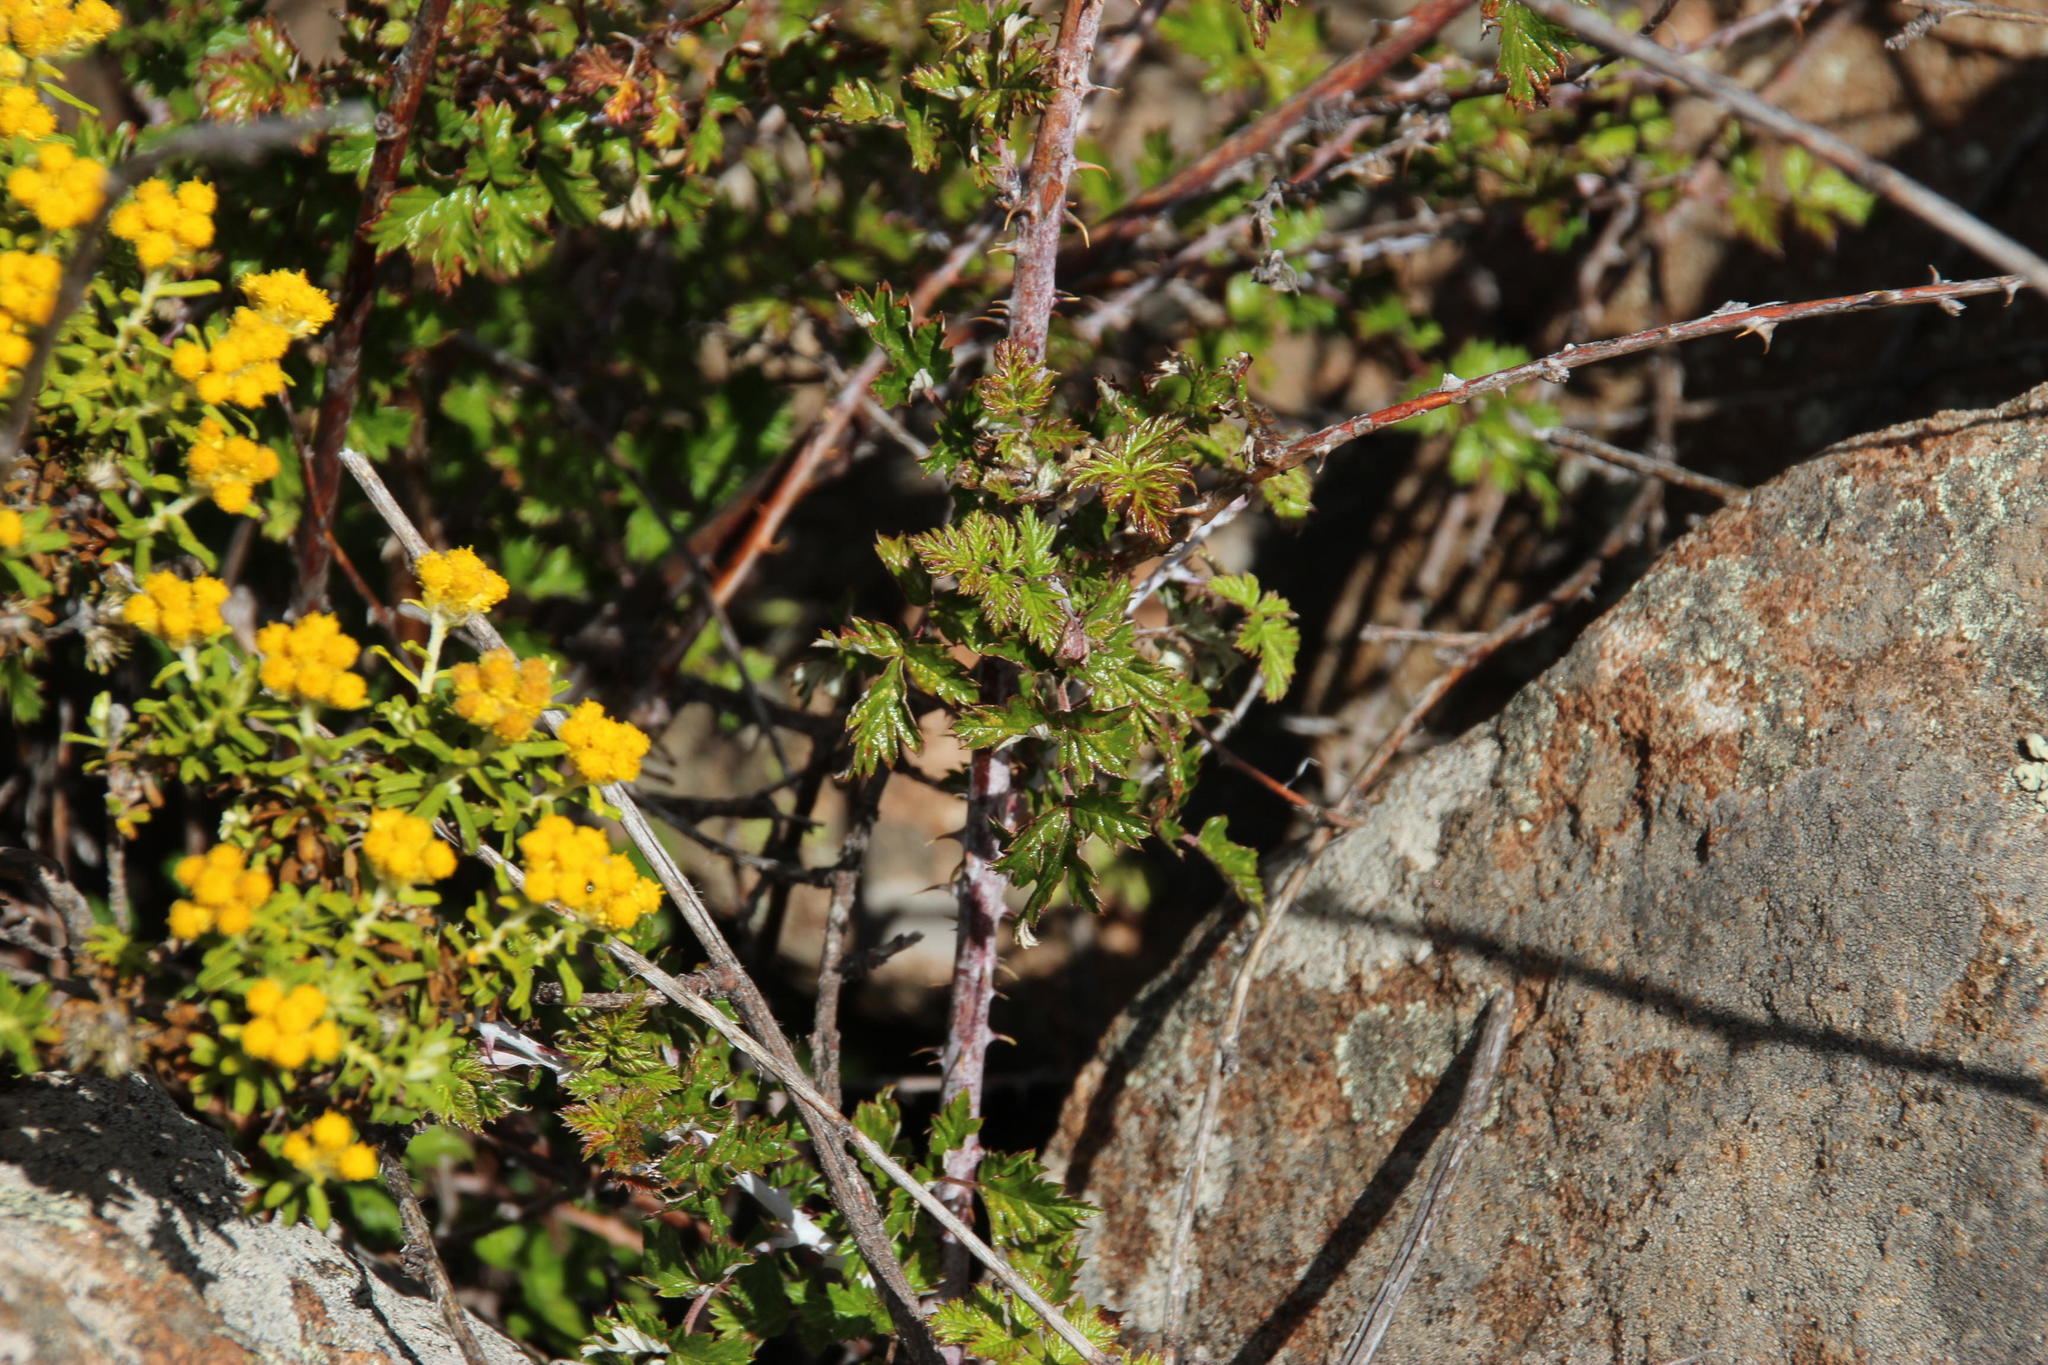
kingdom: Plantae
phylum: Tracheophyta
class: Magnoliopsida
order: Rosales
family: Rosaceae
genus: Rubus
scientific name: Rubus ludwigii
